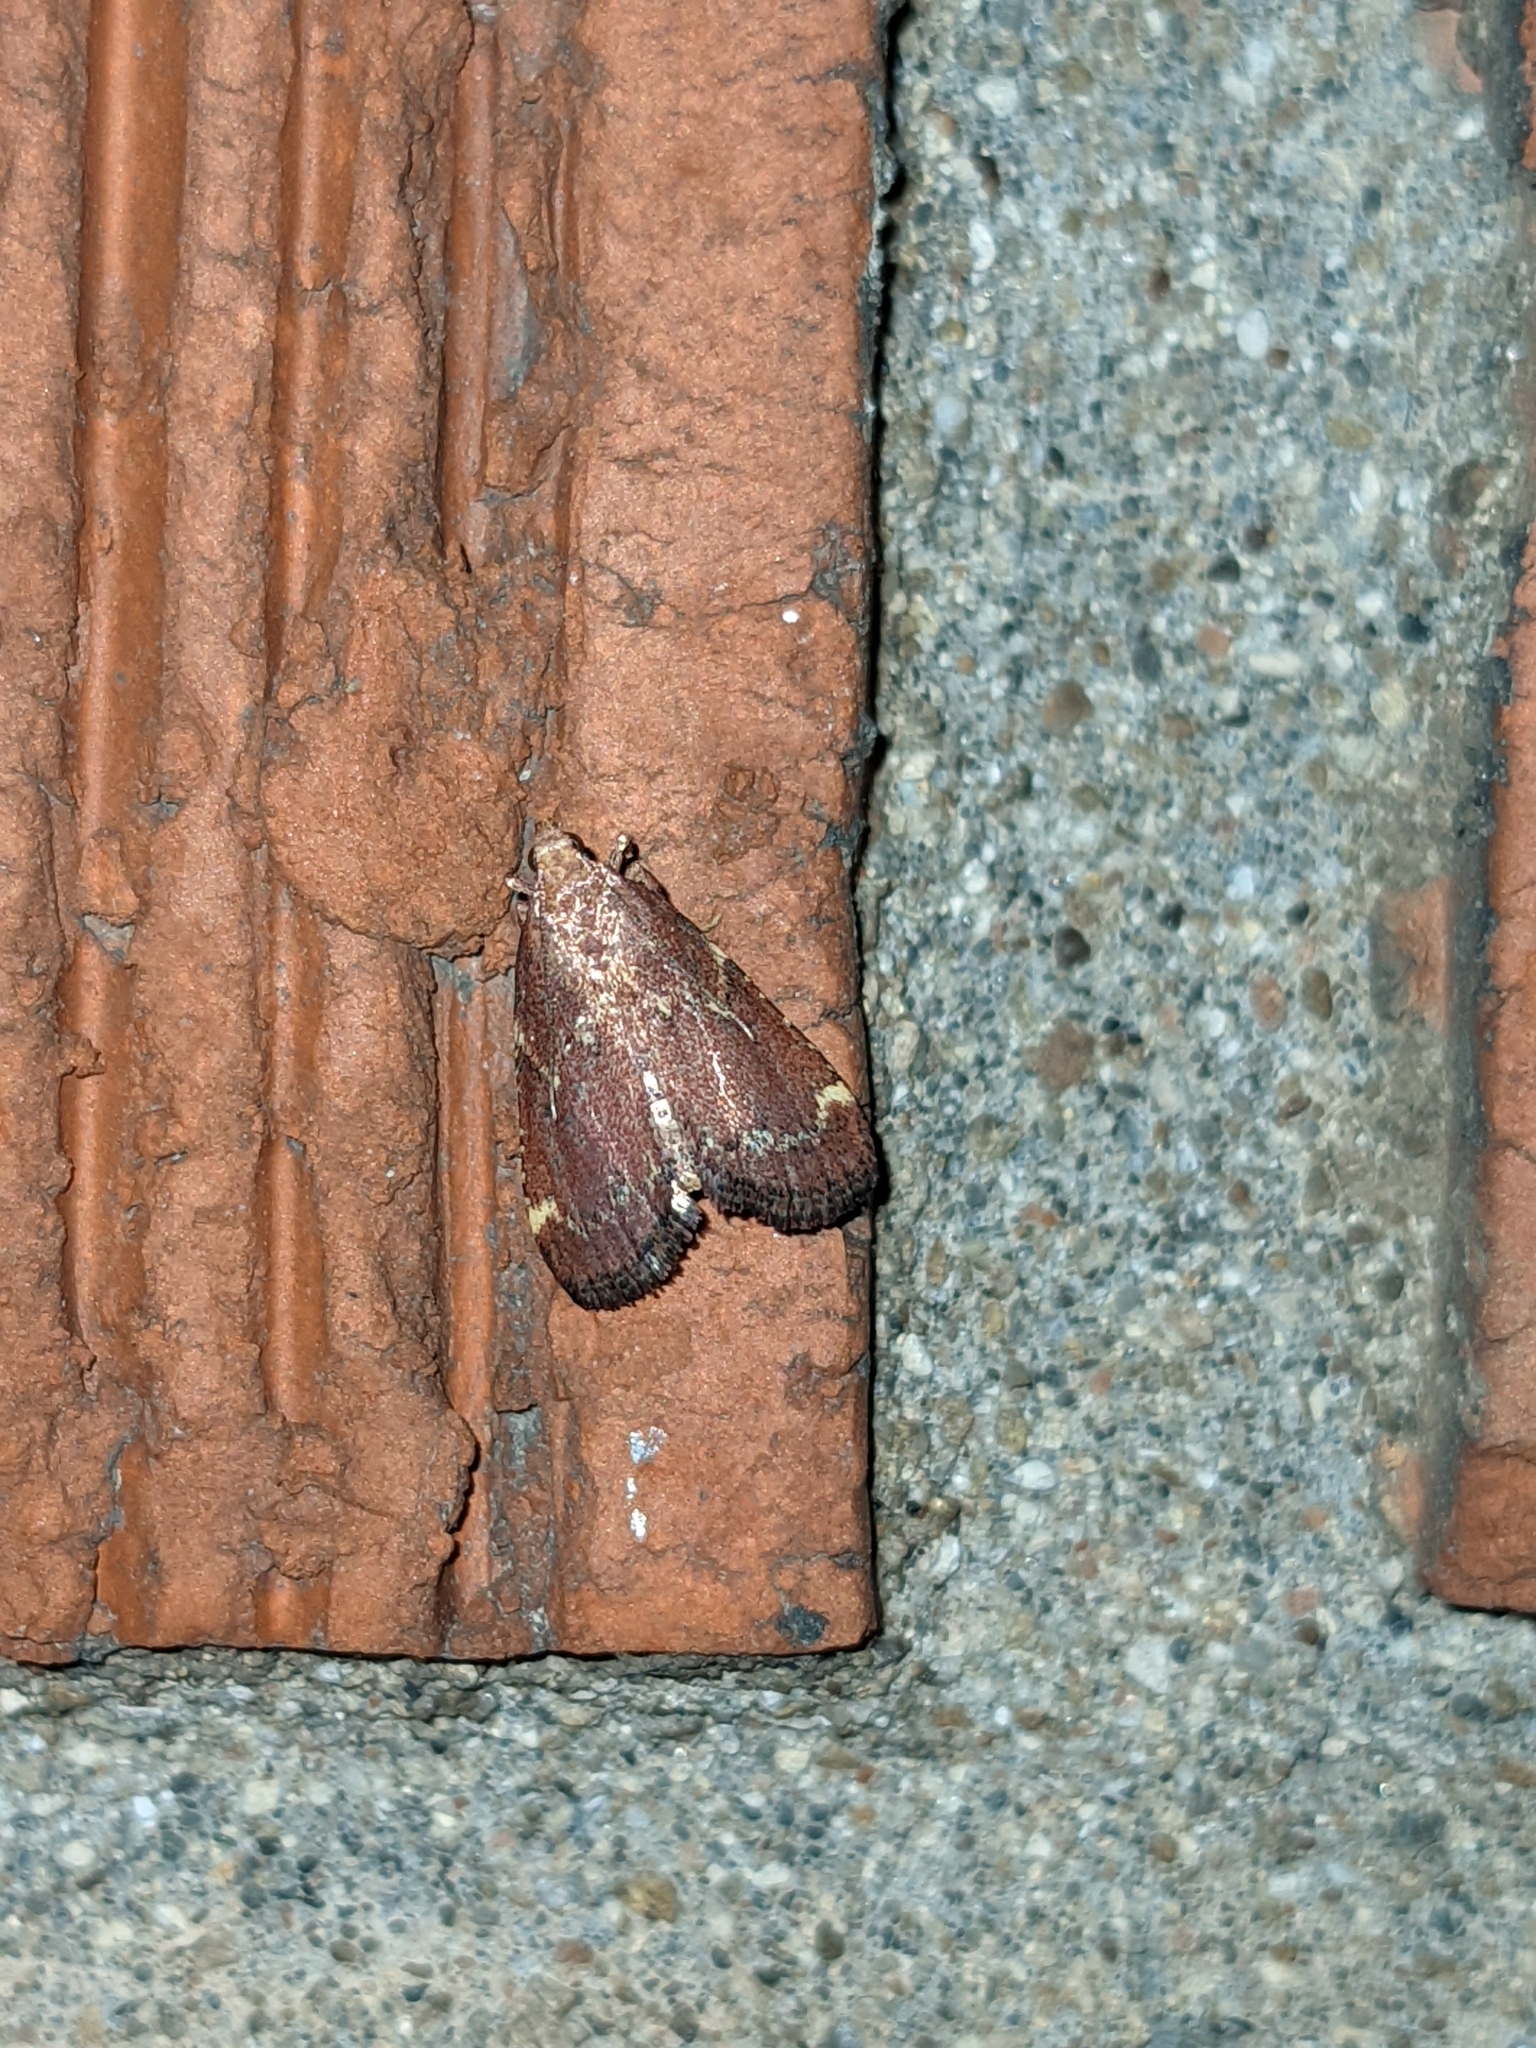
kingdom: Animalia
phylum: Arthropoda
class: Insecta
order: Lepidoptera
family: Pyralidae
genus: Hypsopygia
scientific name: Hypsopygia intermedialis
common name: Red-shawled moth
